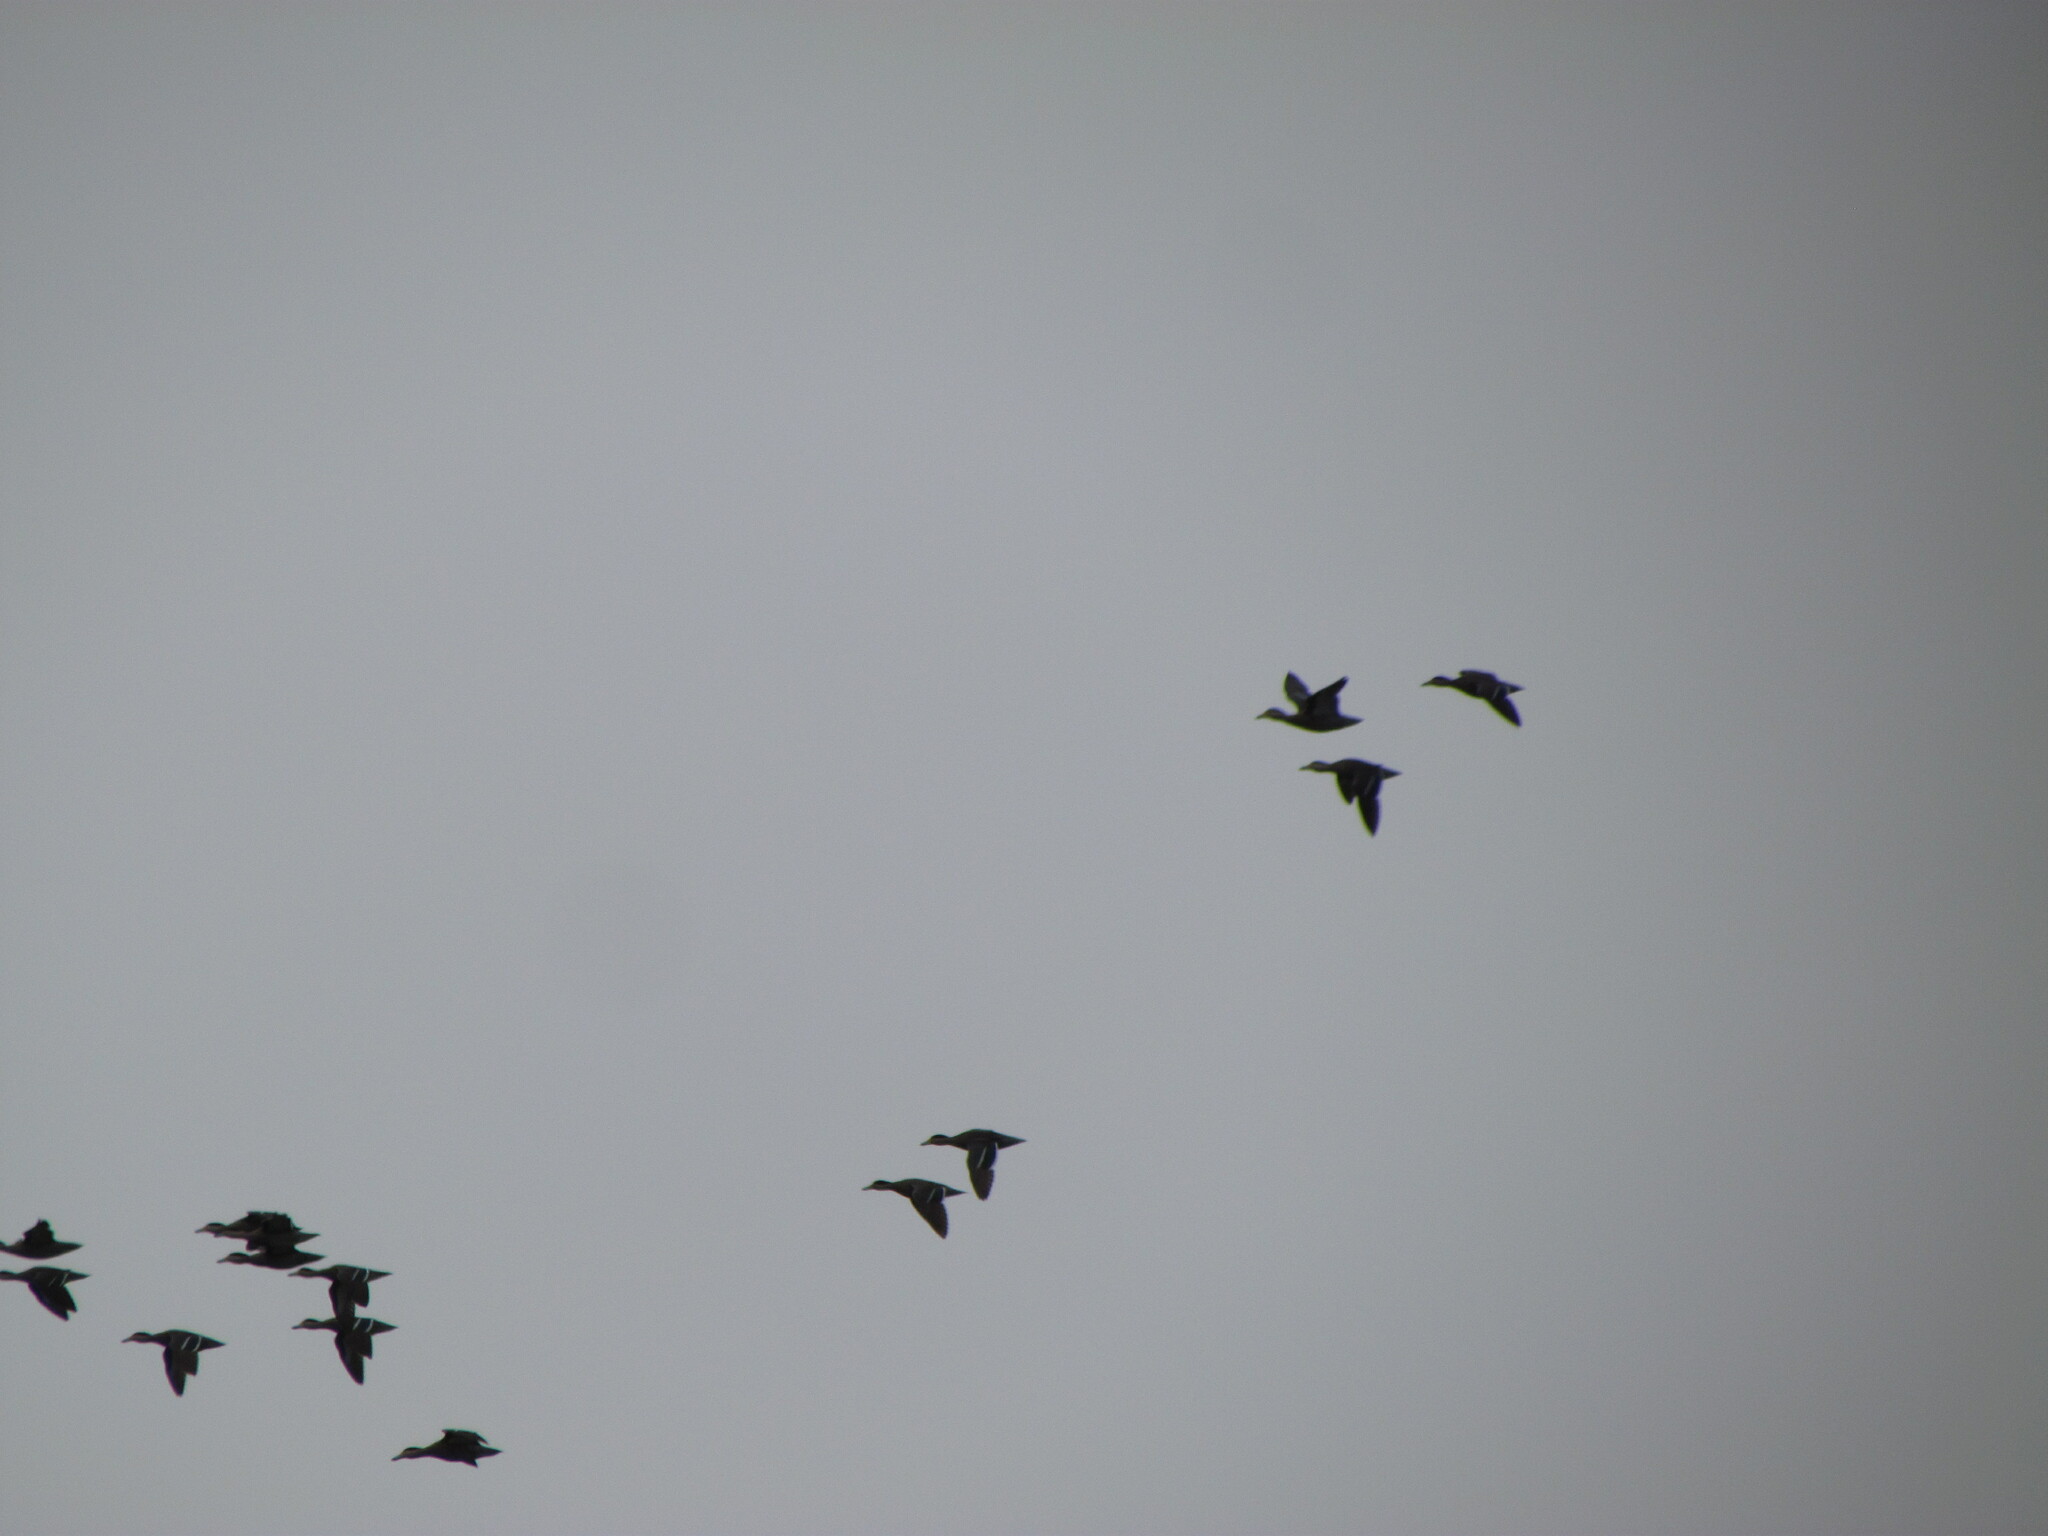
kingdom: Animalia
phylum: Chordata
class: Aves
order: Anseriformes
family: Anatidae
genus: Spatula
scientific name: Spatula versicolor
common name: Silver teal
